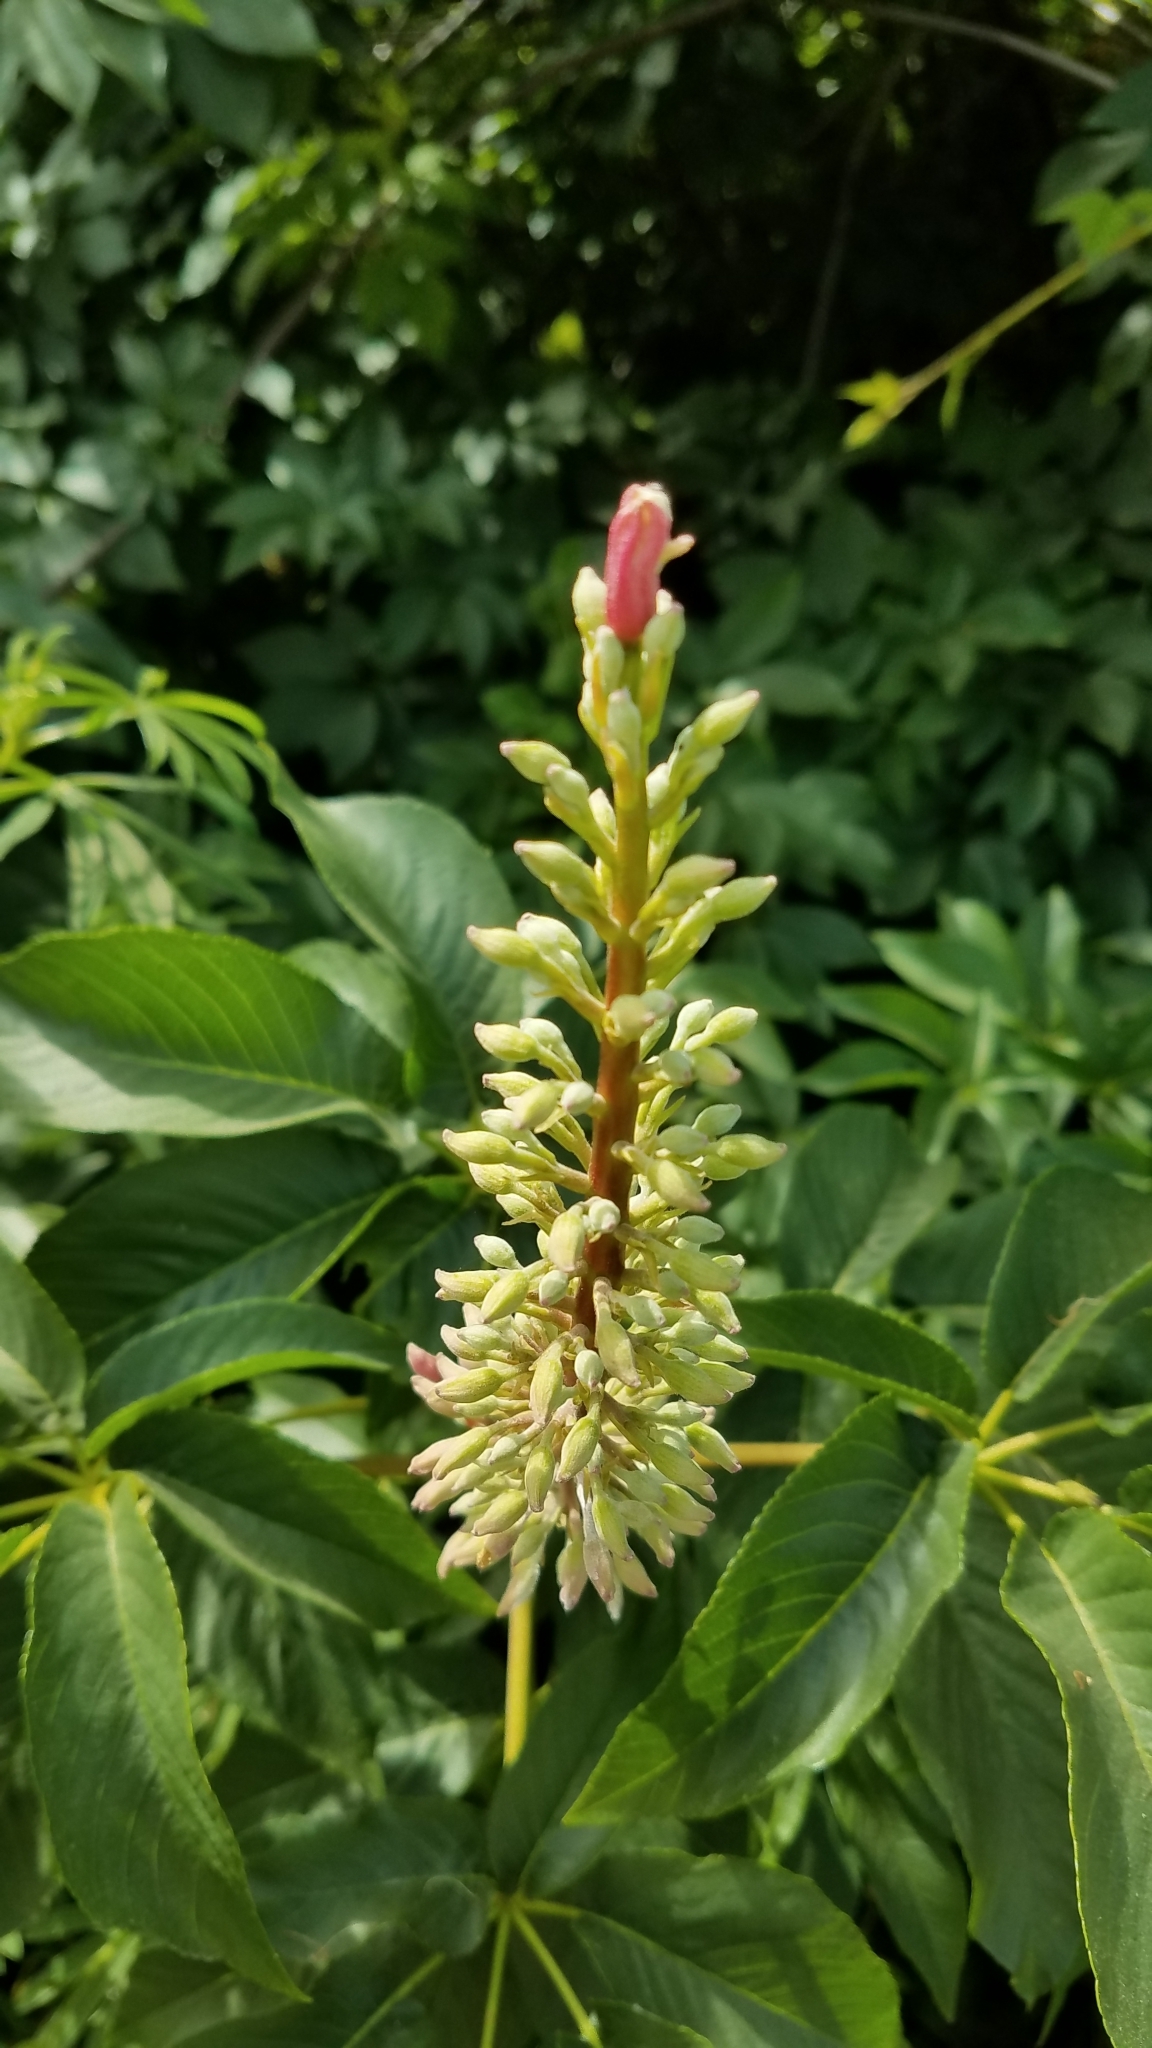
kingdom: Plantae
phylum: Tracheophyta
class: Magnoliopsida
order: Sapindales
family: Sapindaceae
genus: Aesculus
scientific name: Aesculus californica
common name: California buckeye
